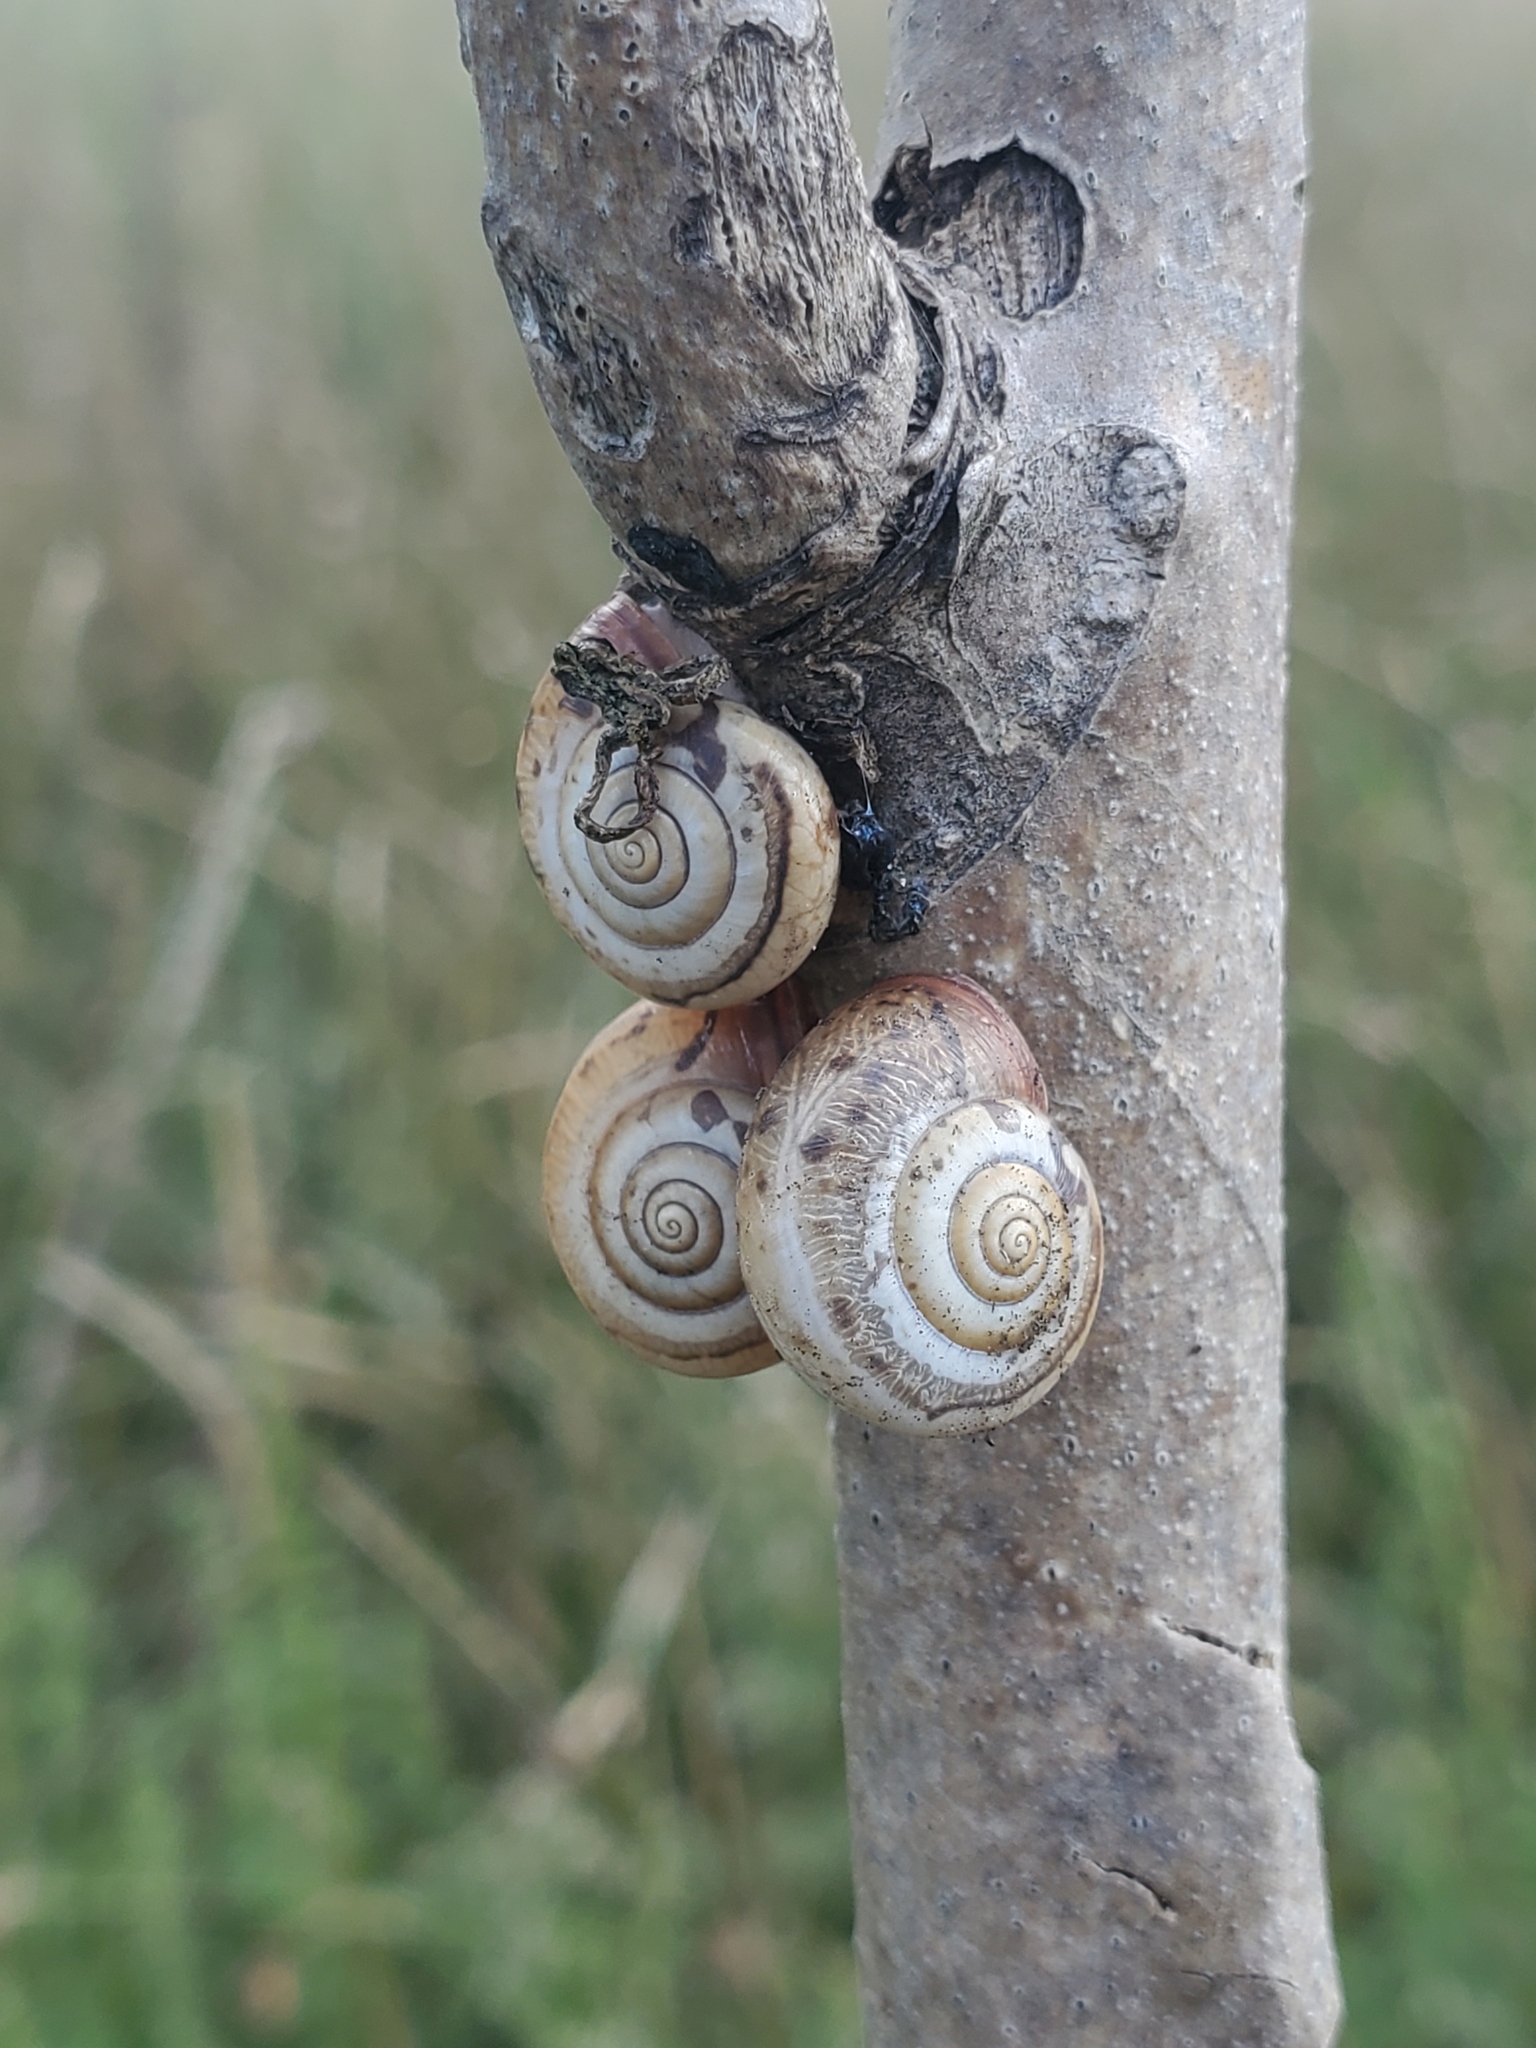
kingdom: Animalia
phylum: Mollusca
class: Gastropoda
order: Stylommatophora
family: Hygromiidae
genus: Monacha
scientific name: Monacha cartusiana
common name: Carthusian snail
